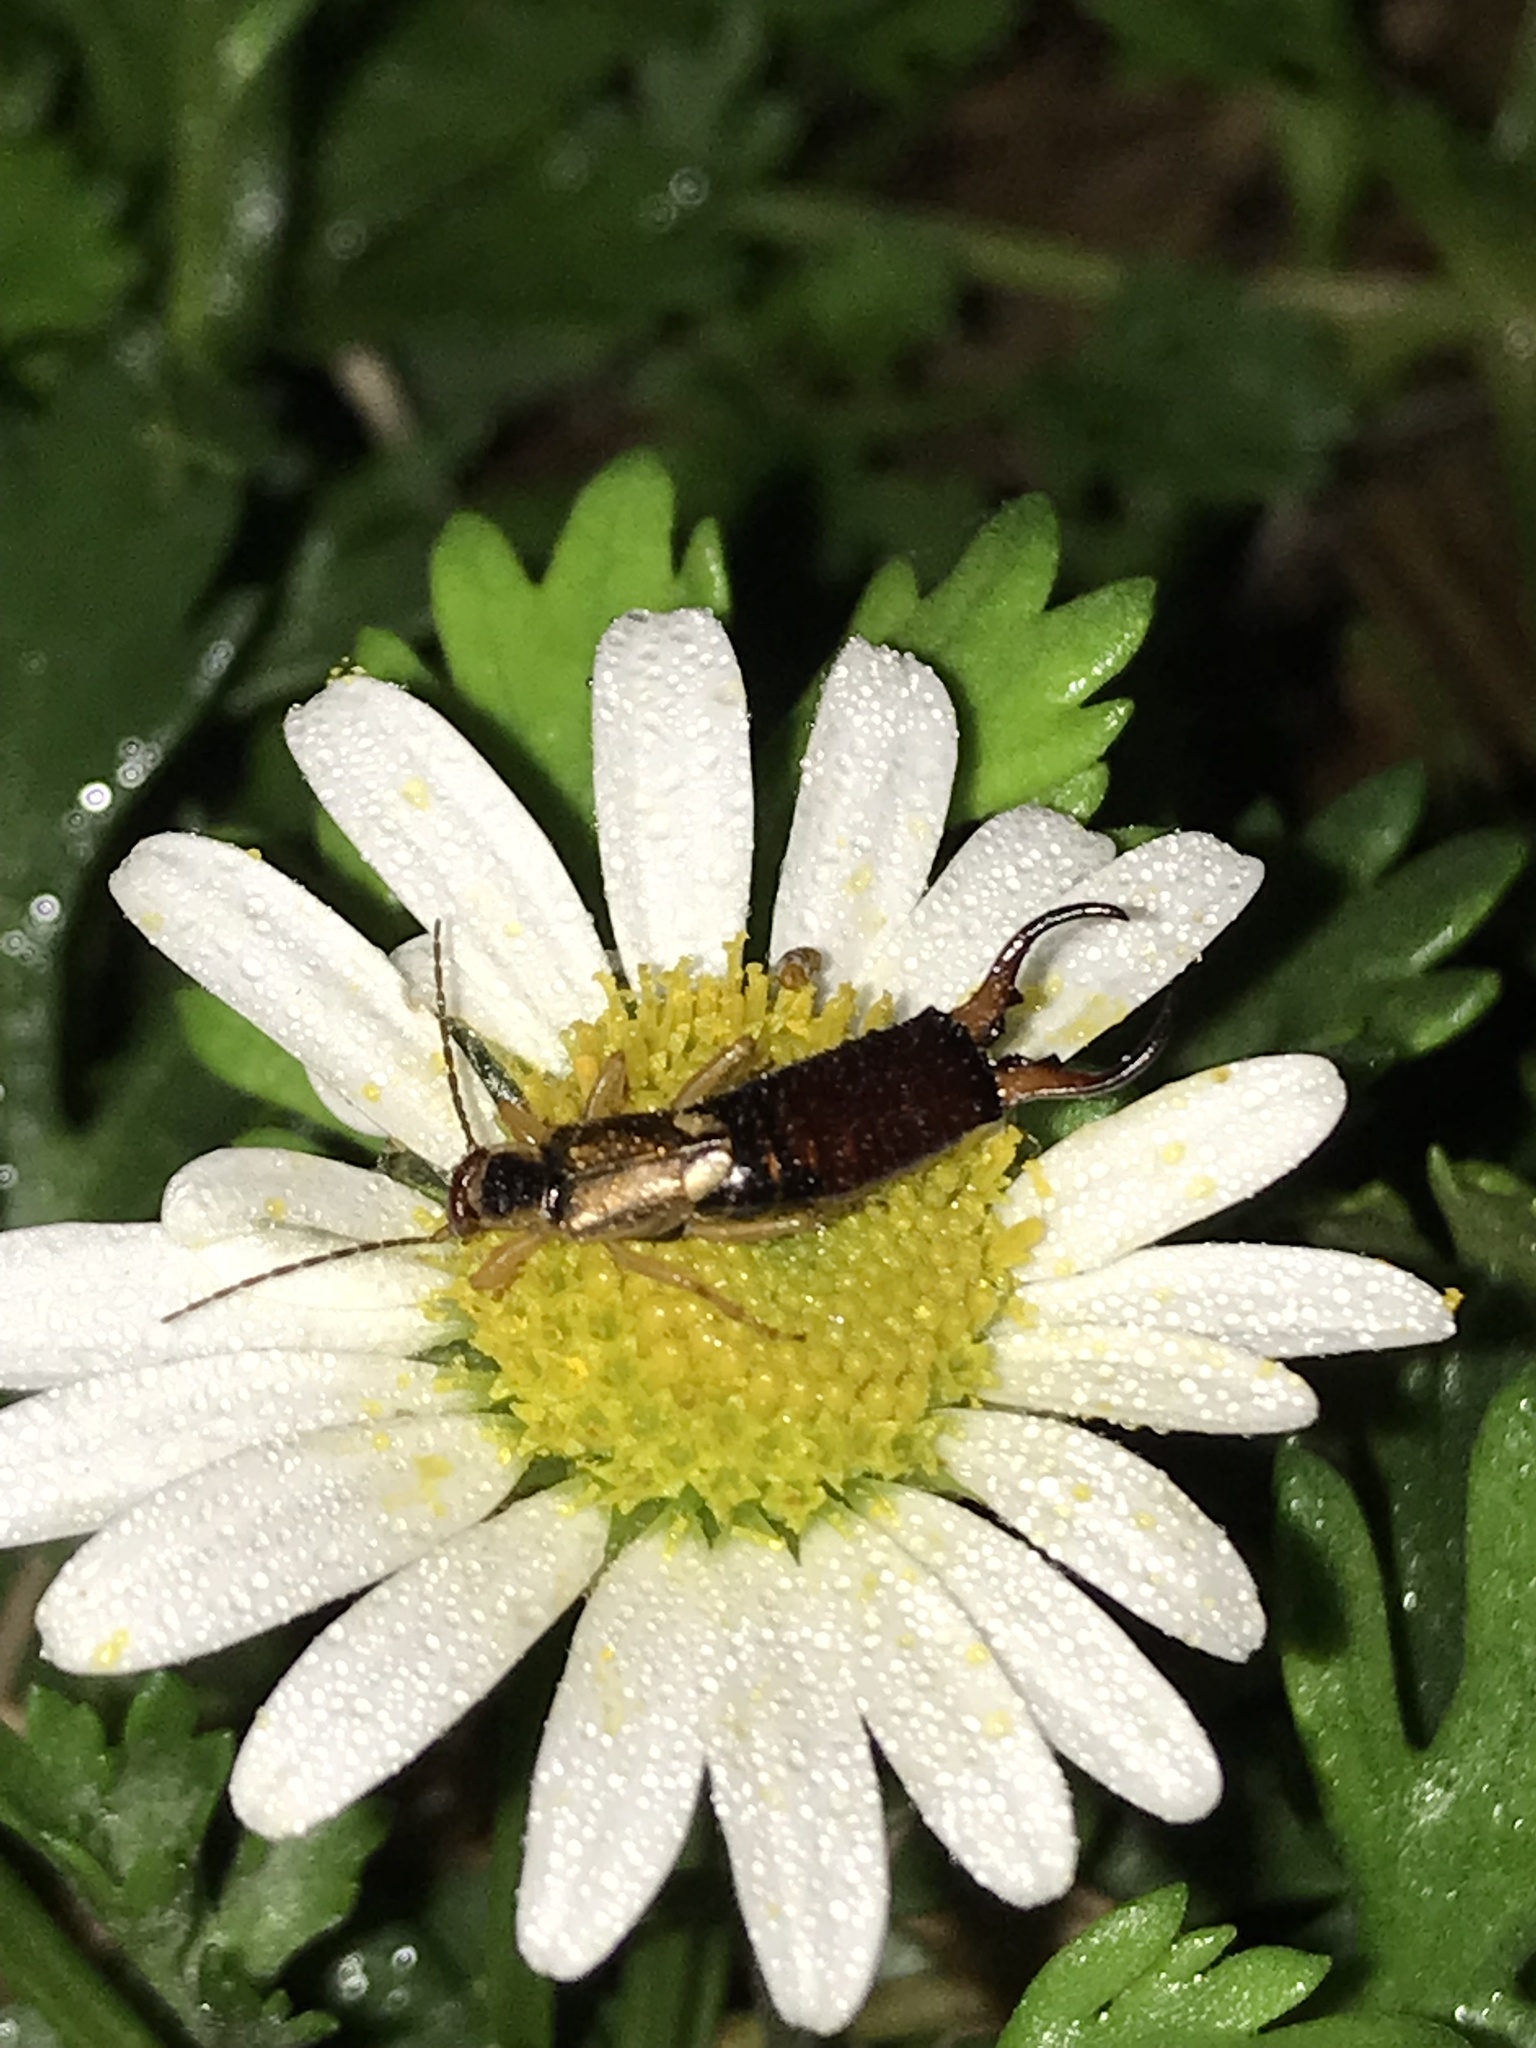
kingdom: Animalia
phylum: Arthropoda
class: Insecta
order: Dermaptera
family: Forficulidae
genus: Forficula
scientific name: Forficula
